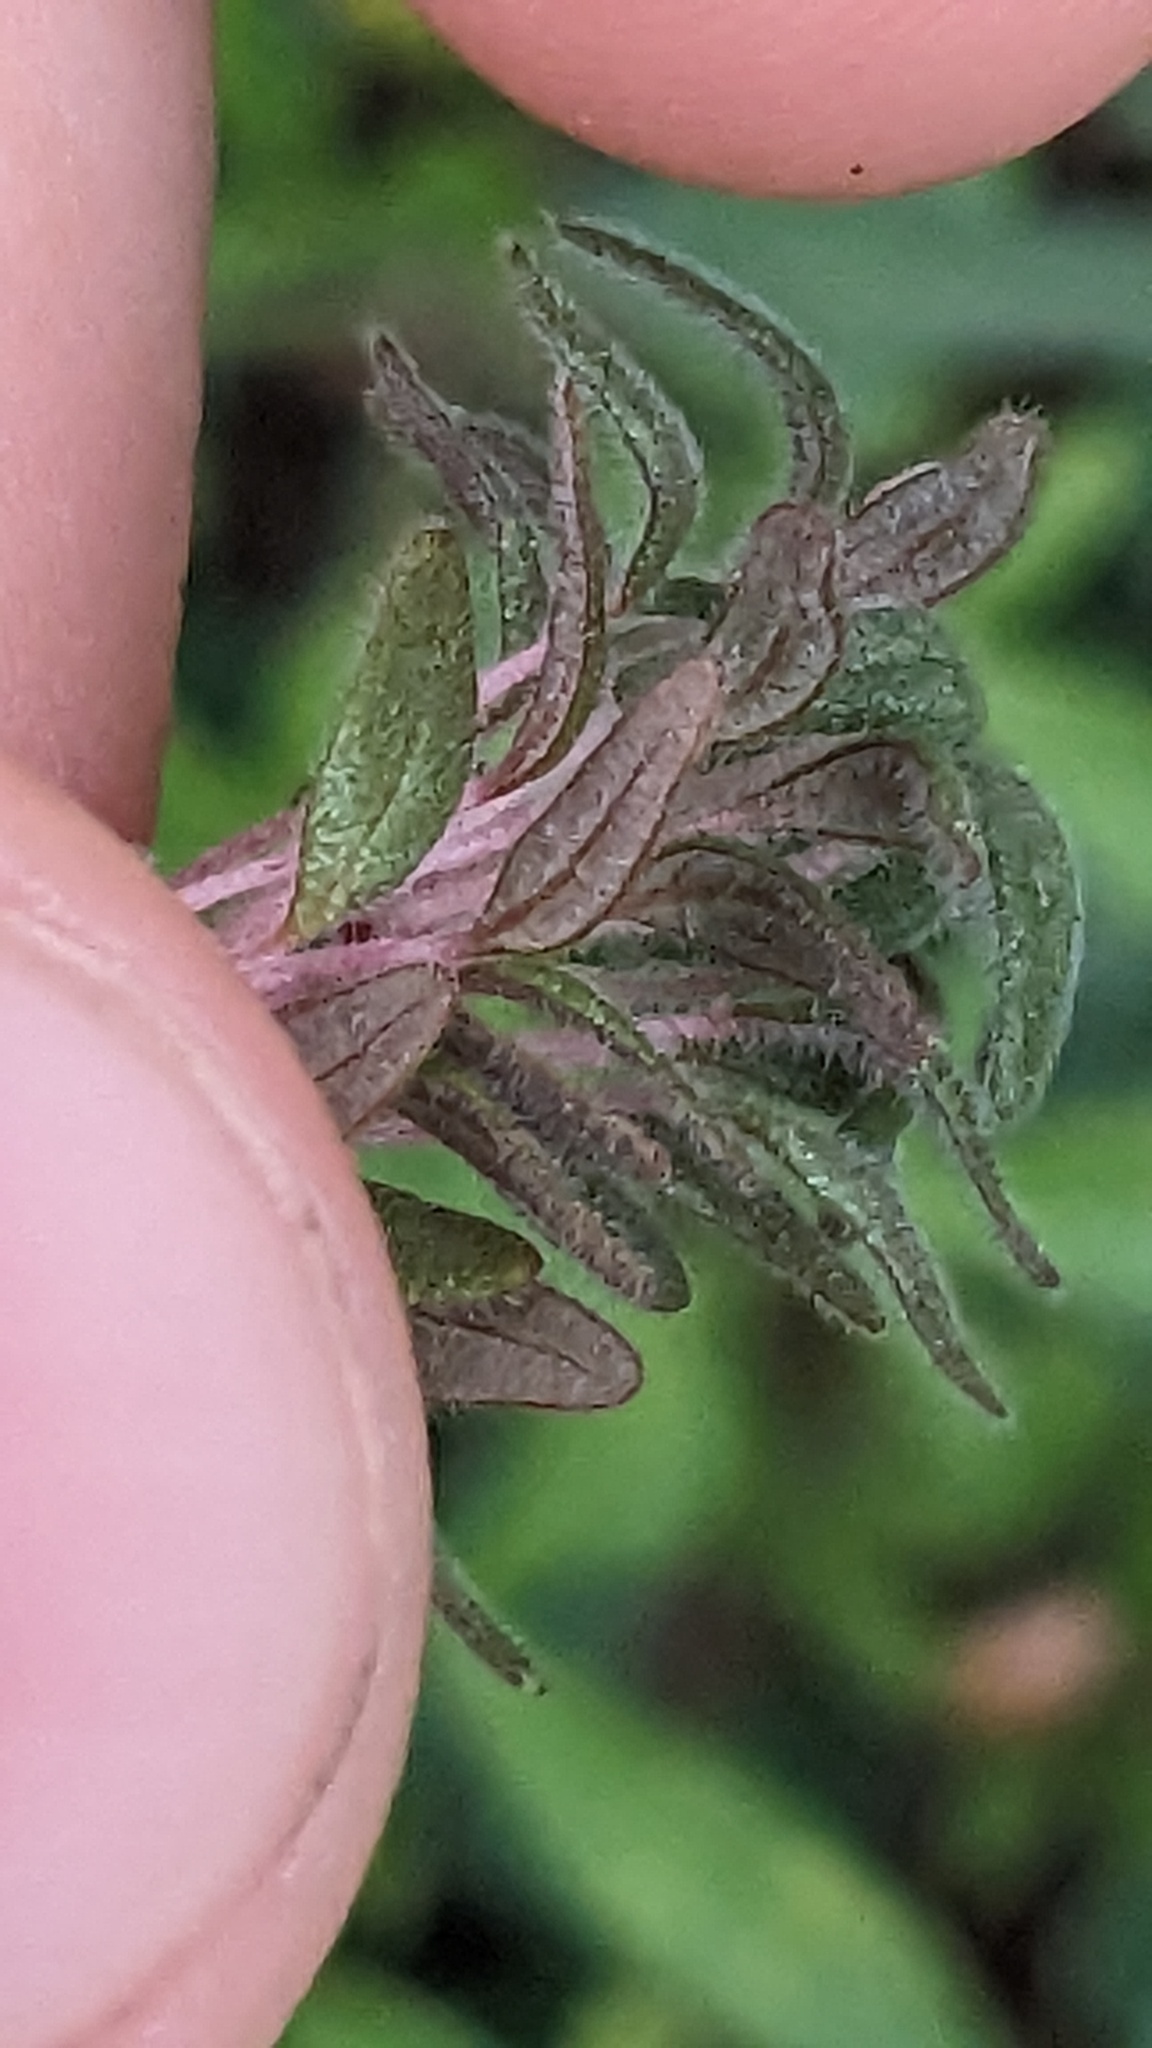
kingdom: Plantae
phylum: Tracheophyta
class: Magnoliopsida
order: Rosales
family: Urticaceae
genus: Parietaria
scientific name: Parietaria pensylvanica
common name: Pennsylvania pellitory
